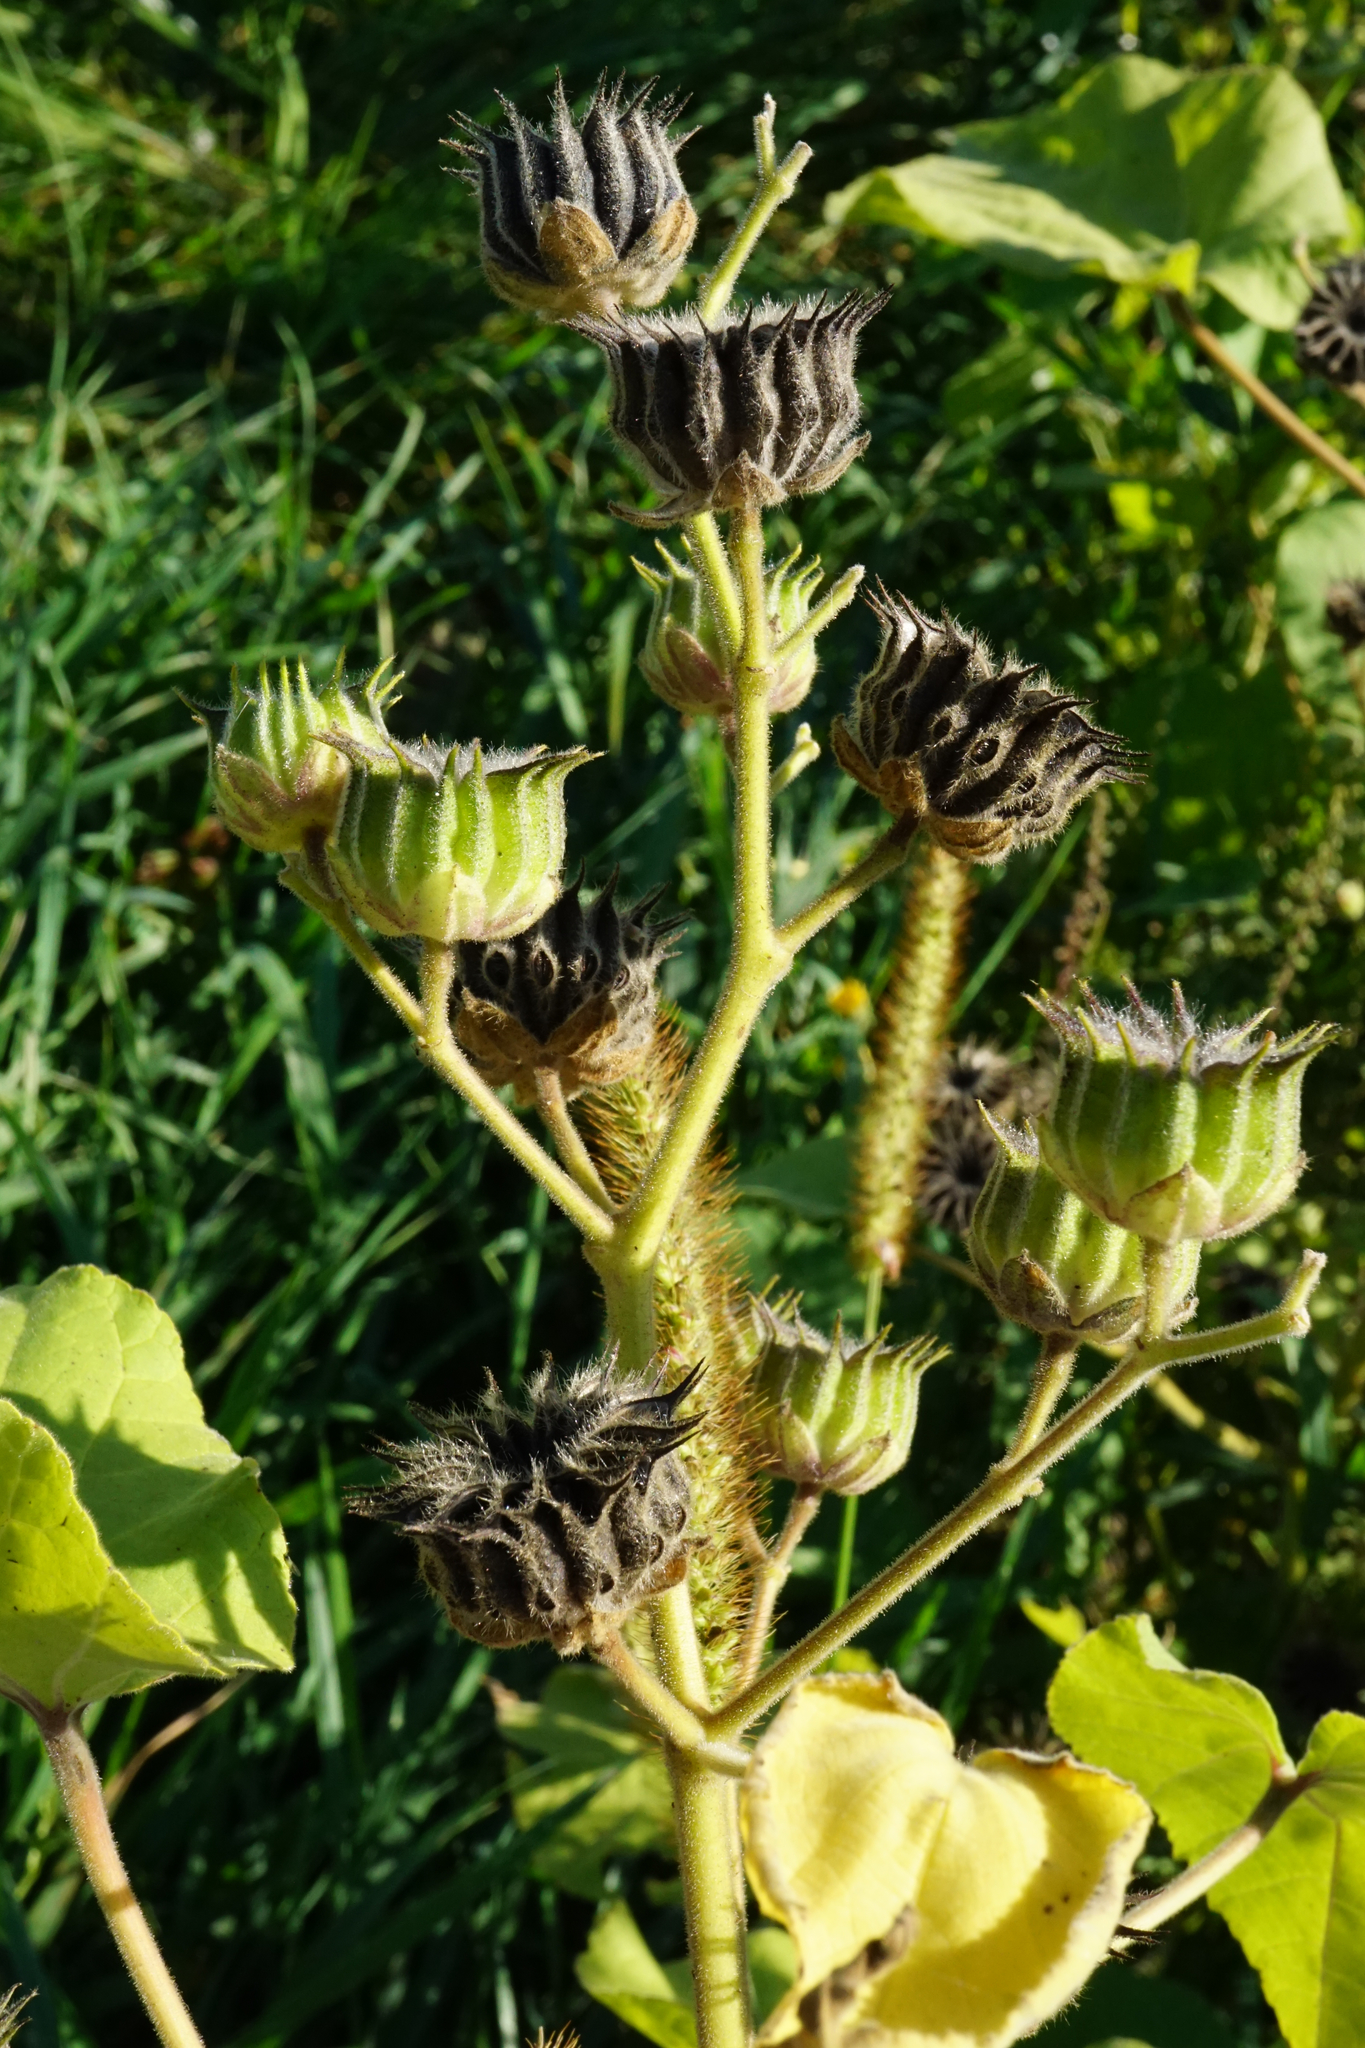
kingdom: Plantae
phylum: Tracheophyta
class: Magnoliopsida
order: Malvales
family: Malvaceae
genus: Abutilon
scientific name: Abutilon theophrasti
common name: Velvetleaf
